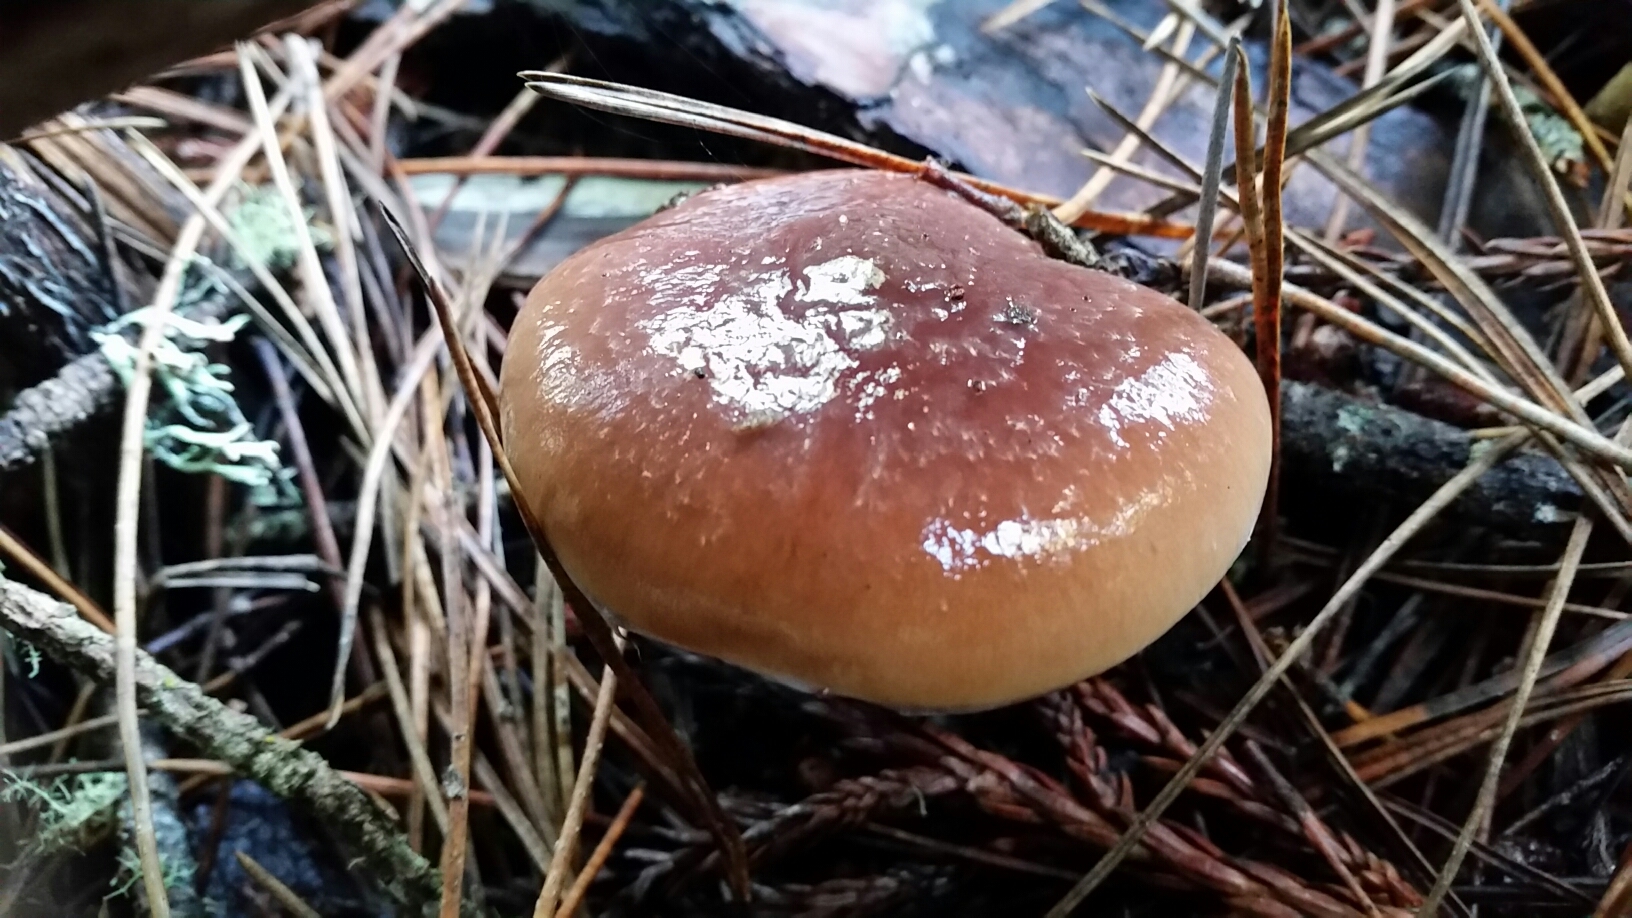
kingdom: Fungi
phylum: Basidiomycota
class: Agaricomycetes
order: Agaricales
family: Strophariaceae
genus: Pholiota
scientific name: Pholiota velaglutinosa
